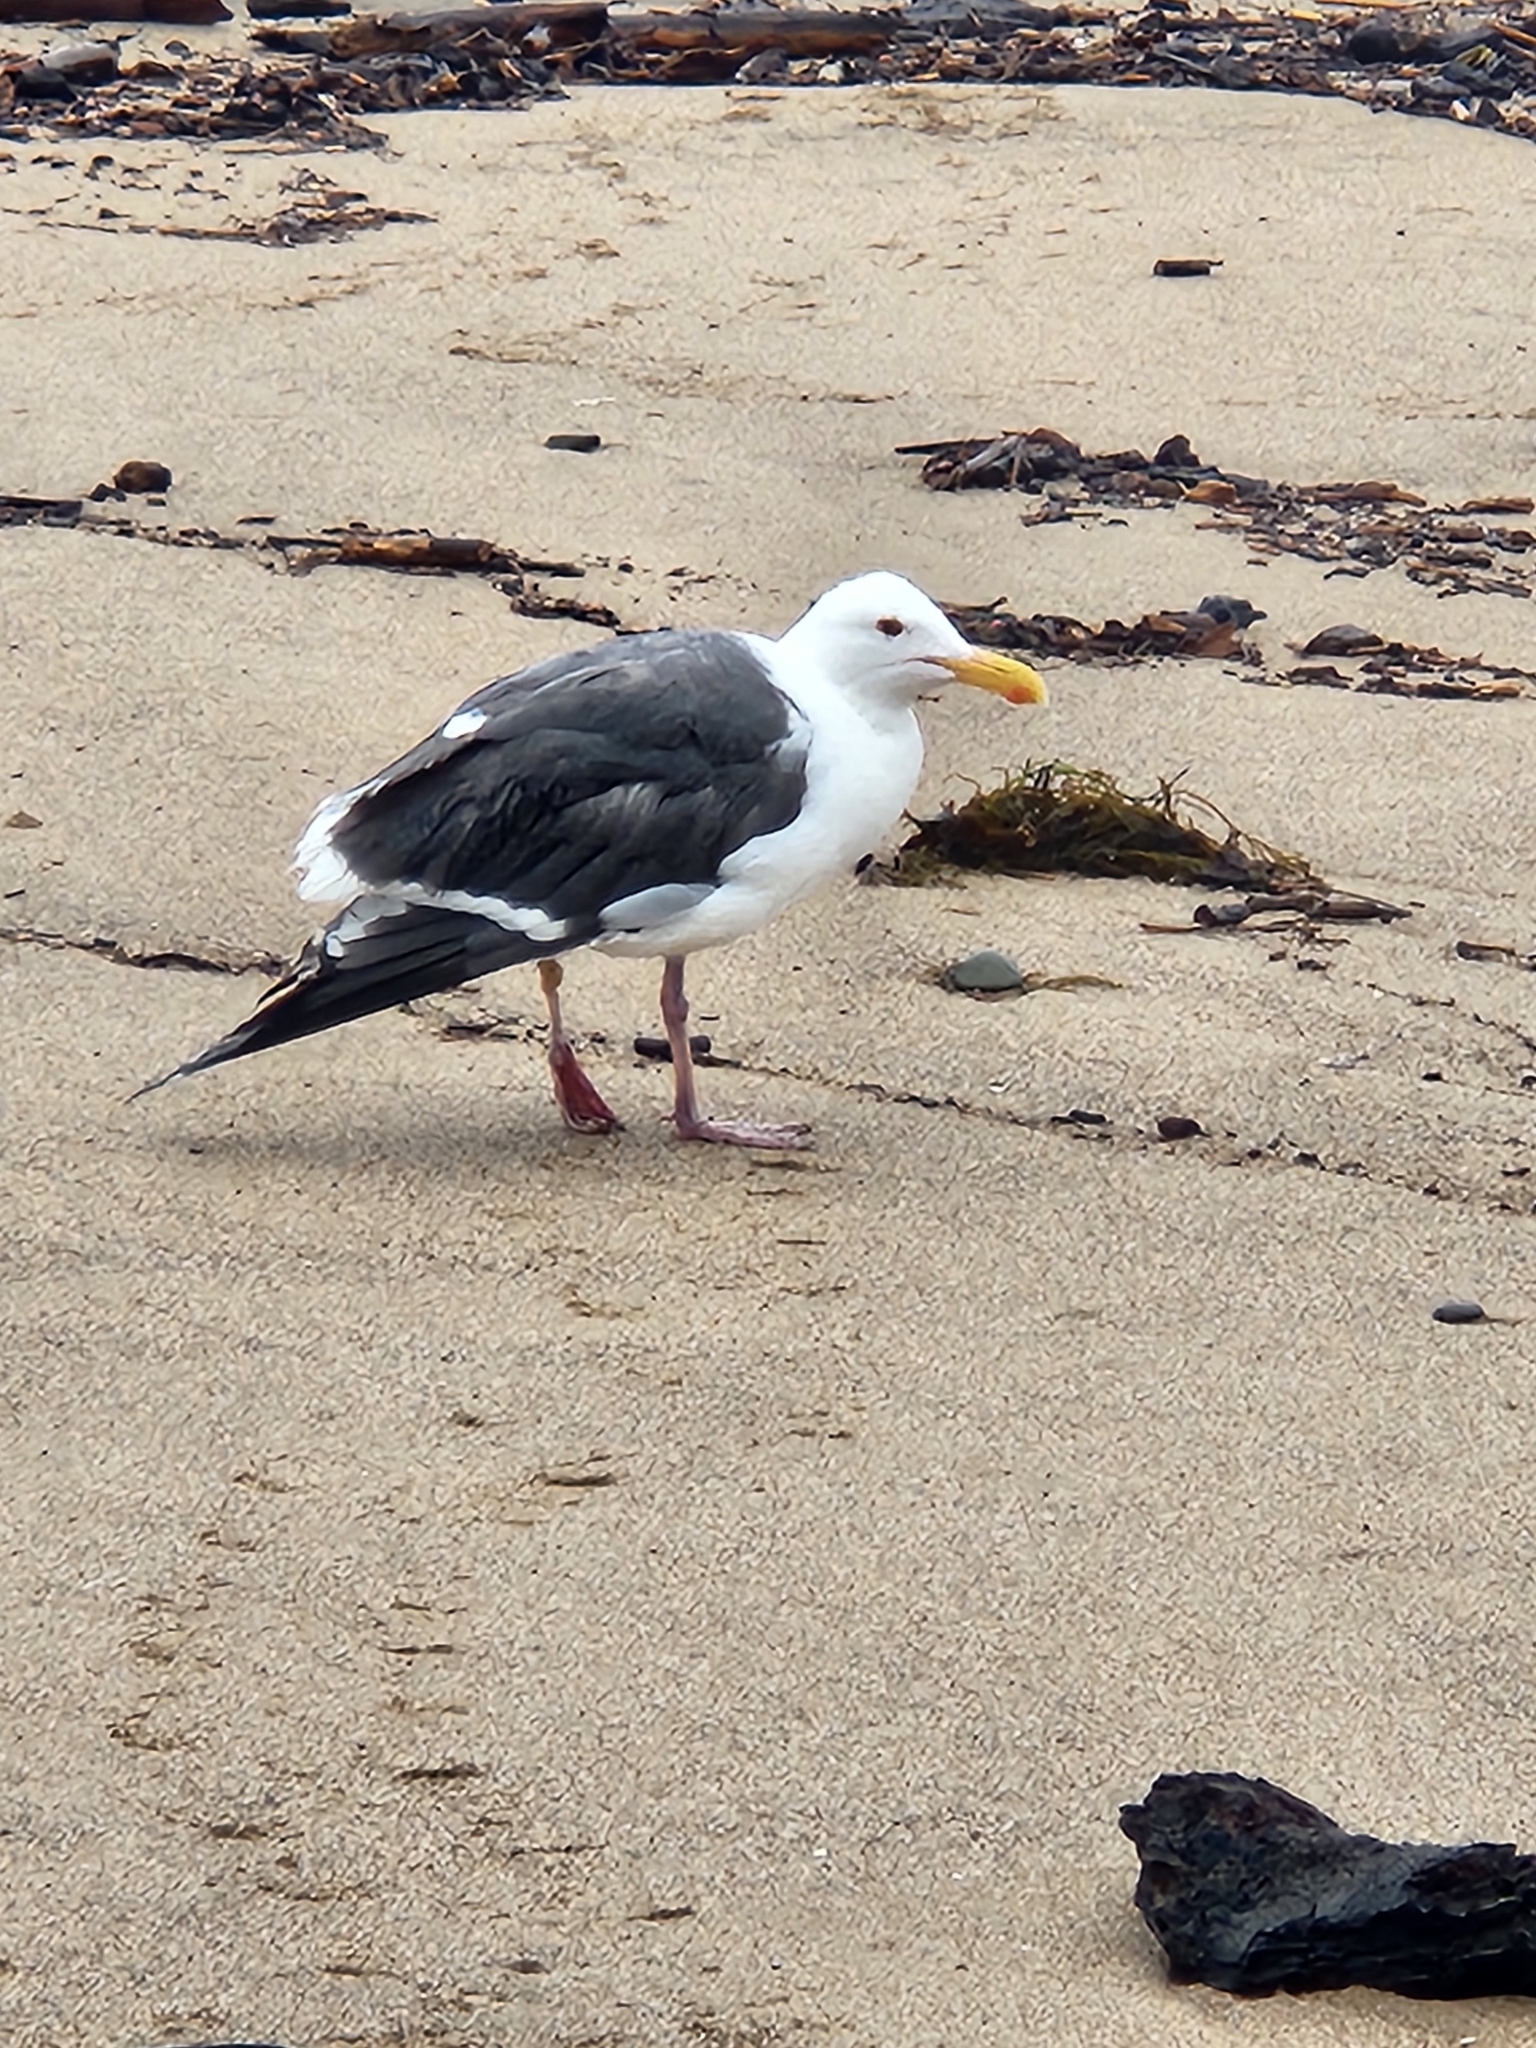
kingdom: Animalia
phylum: Chordata
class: Aves
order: Charadriiformes
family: Laridae
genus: Larus
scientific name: Larus occidentalis
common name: Western gull
